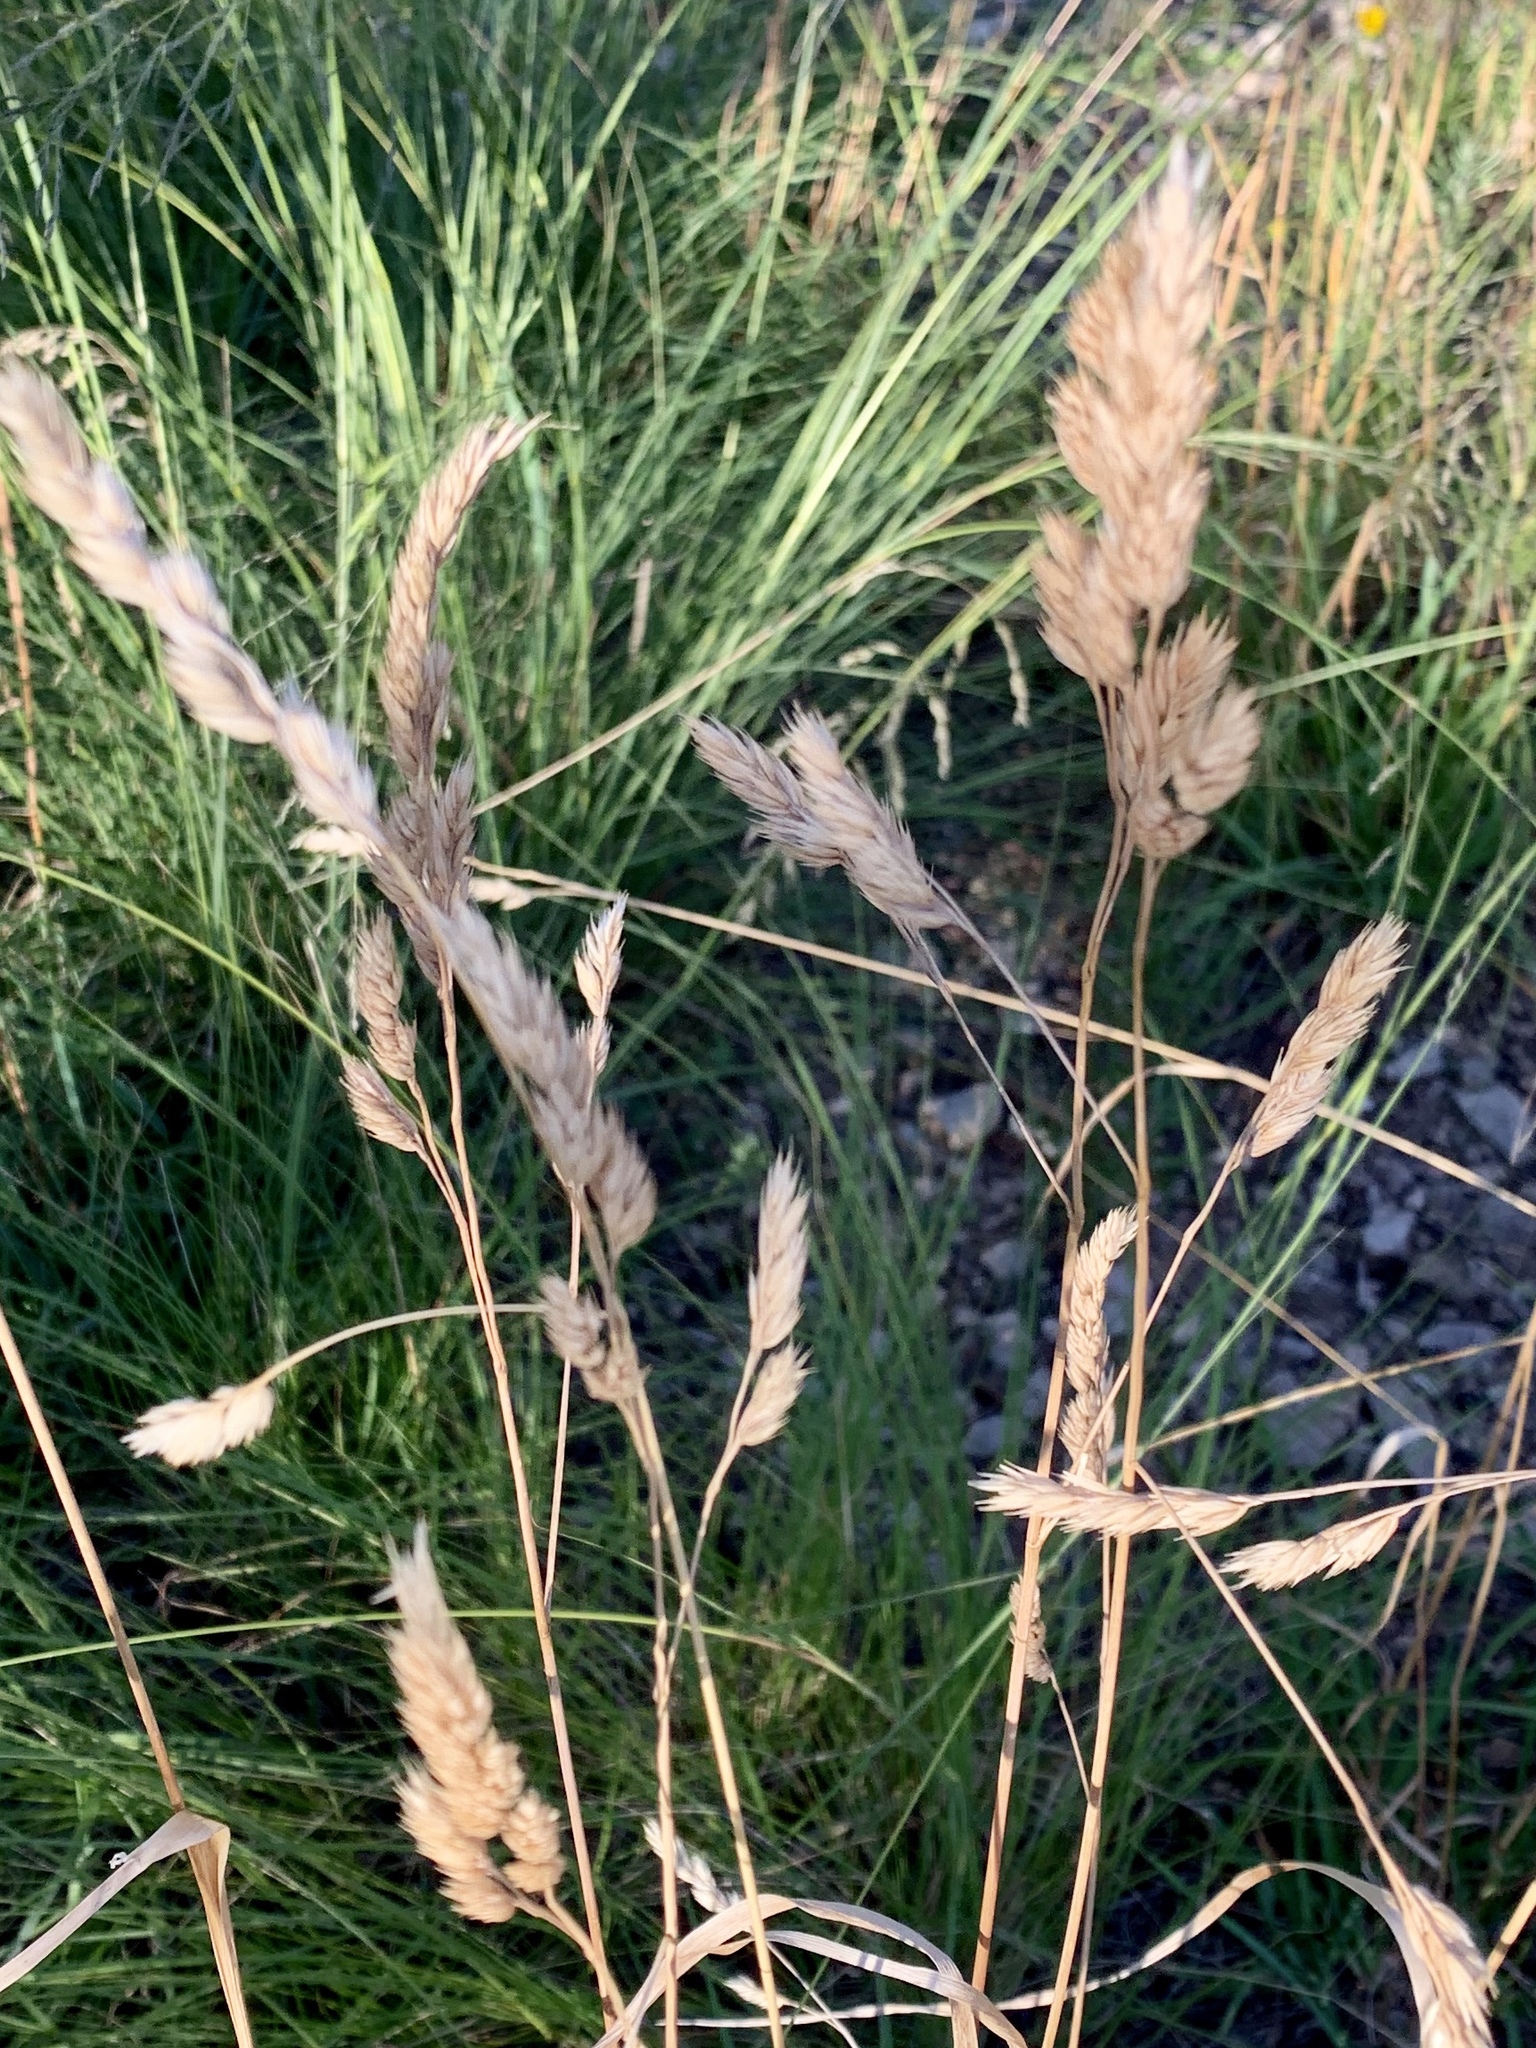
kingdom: Plantae
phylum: Tracheophyta
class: Liliopsida
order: Poales
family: Poaceae
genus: Dactylis
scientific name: Dactylis glomerata
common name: Orchardgrass
